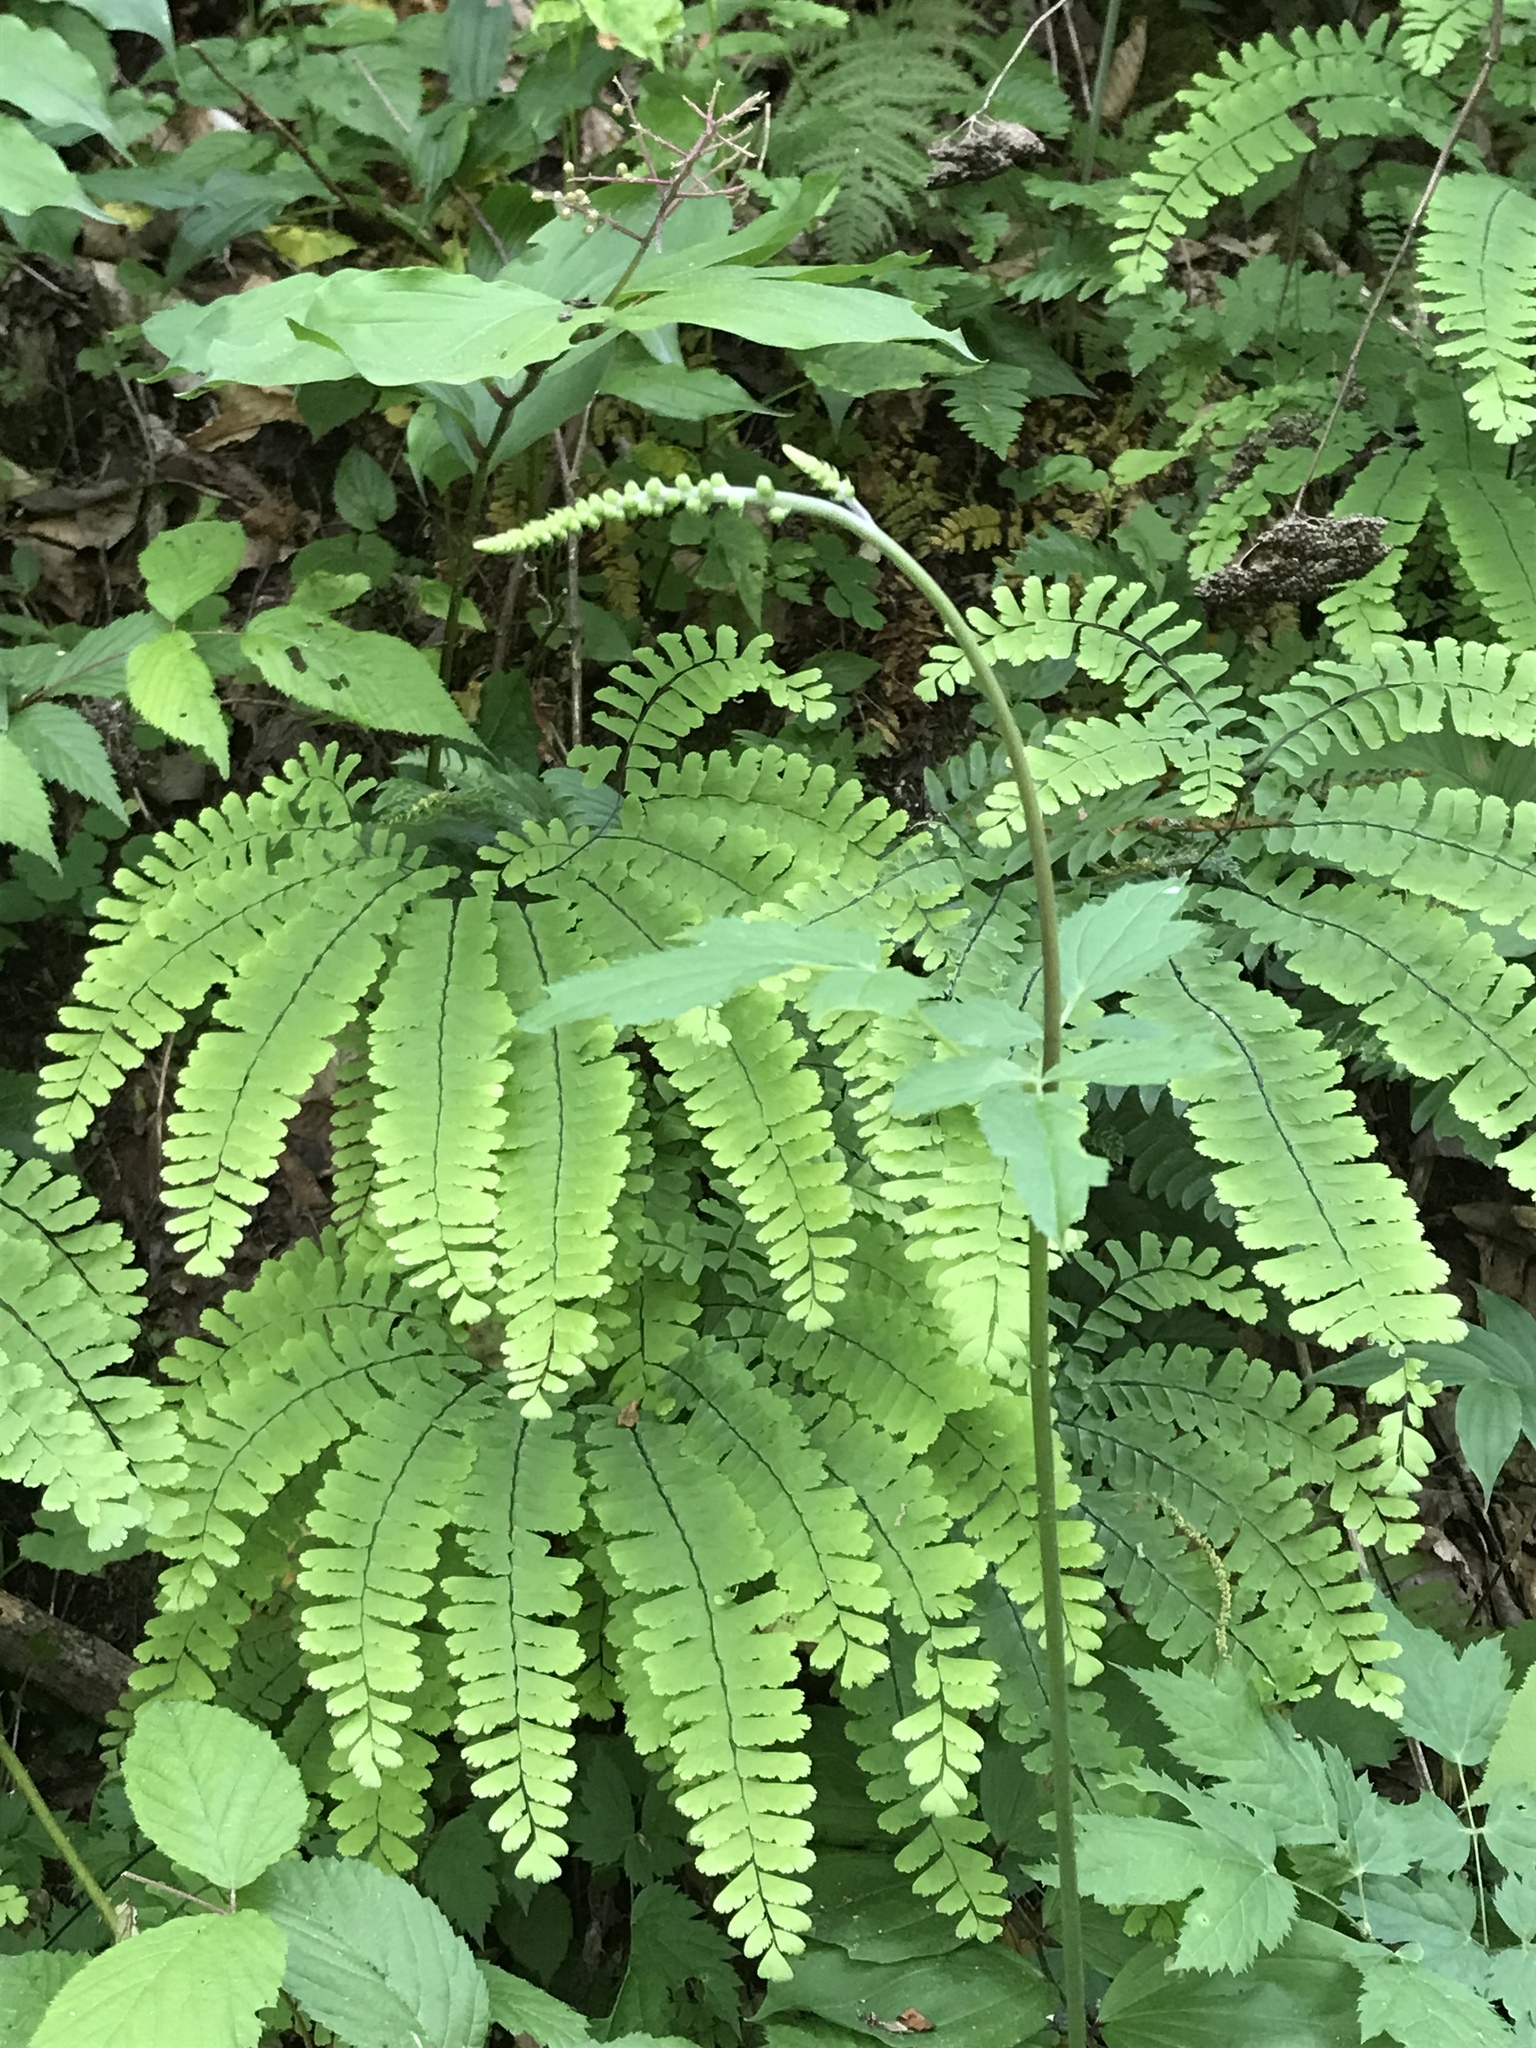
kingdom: Plantae
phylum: Tracheophyta
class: Magnoliopsida
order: Ranunculales
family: Ranunculaceae
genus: Actaea
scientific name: Actaea racemosa
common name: Black cohosh
